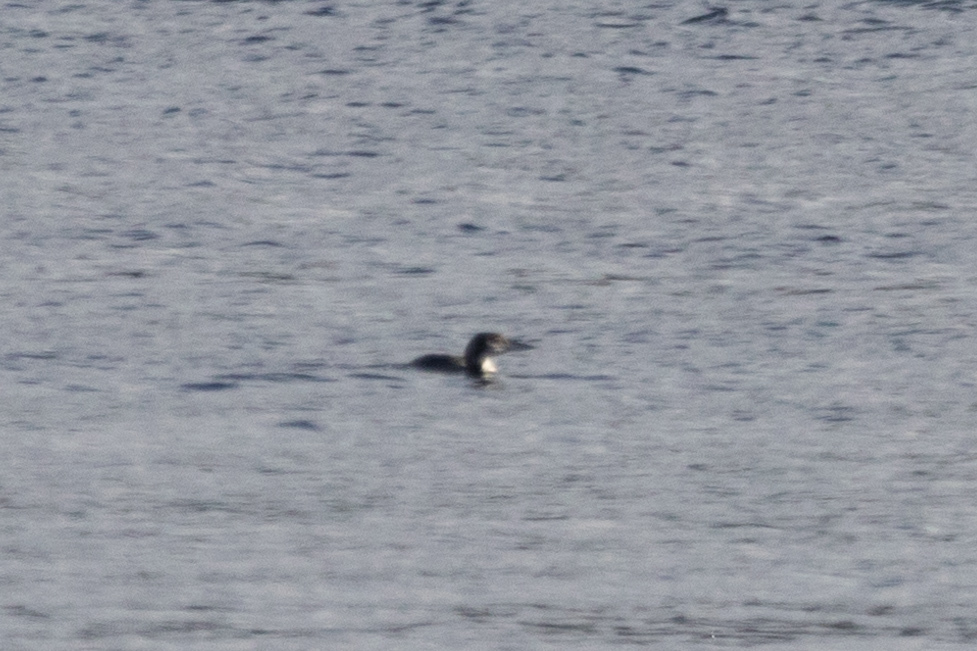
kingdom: Animalia
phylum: Chordata
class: Aves
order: Gaviiformes
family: Gaviidae
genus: Gavia
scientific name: Gavia immer
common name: Common loon
